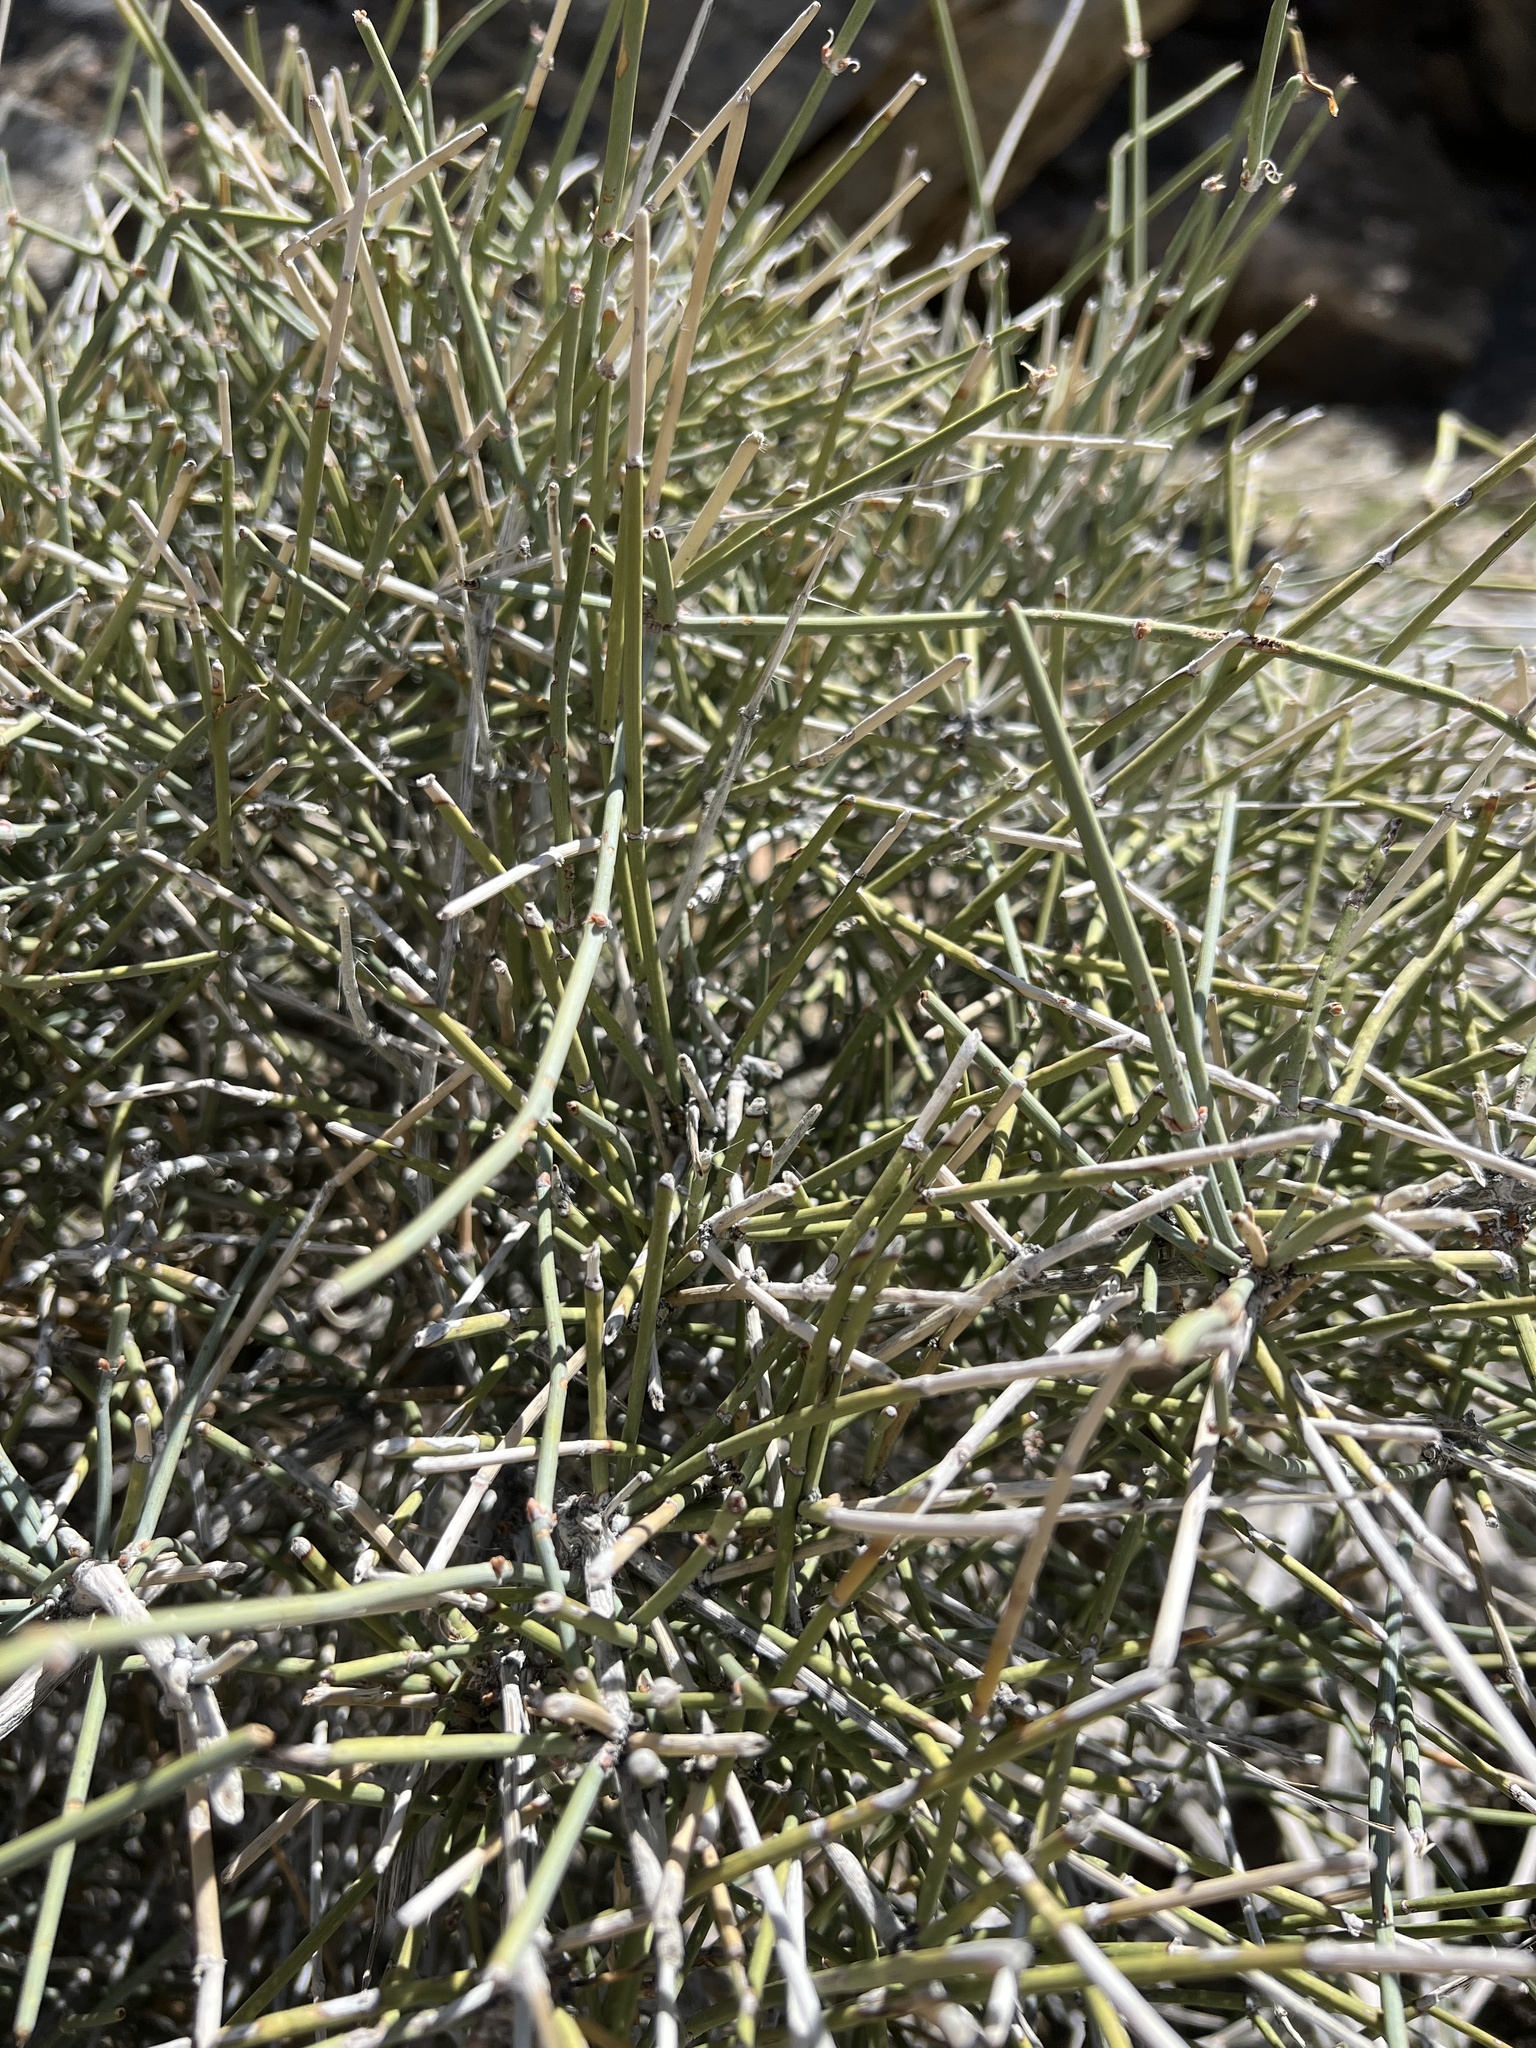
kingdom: Plantae
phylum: Tracheophyta
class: Gnetopsida
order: Ephedrales
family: Ephedraceae
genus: Ephedra
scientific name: Ephedra nevadensis
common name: Gray ephedra
